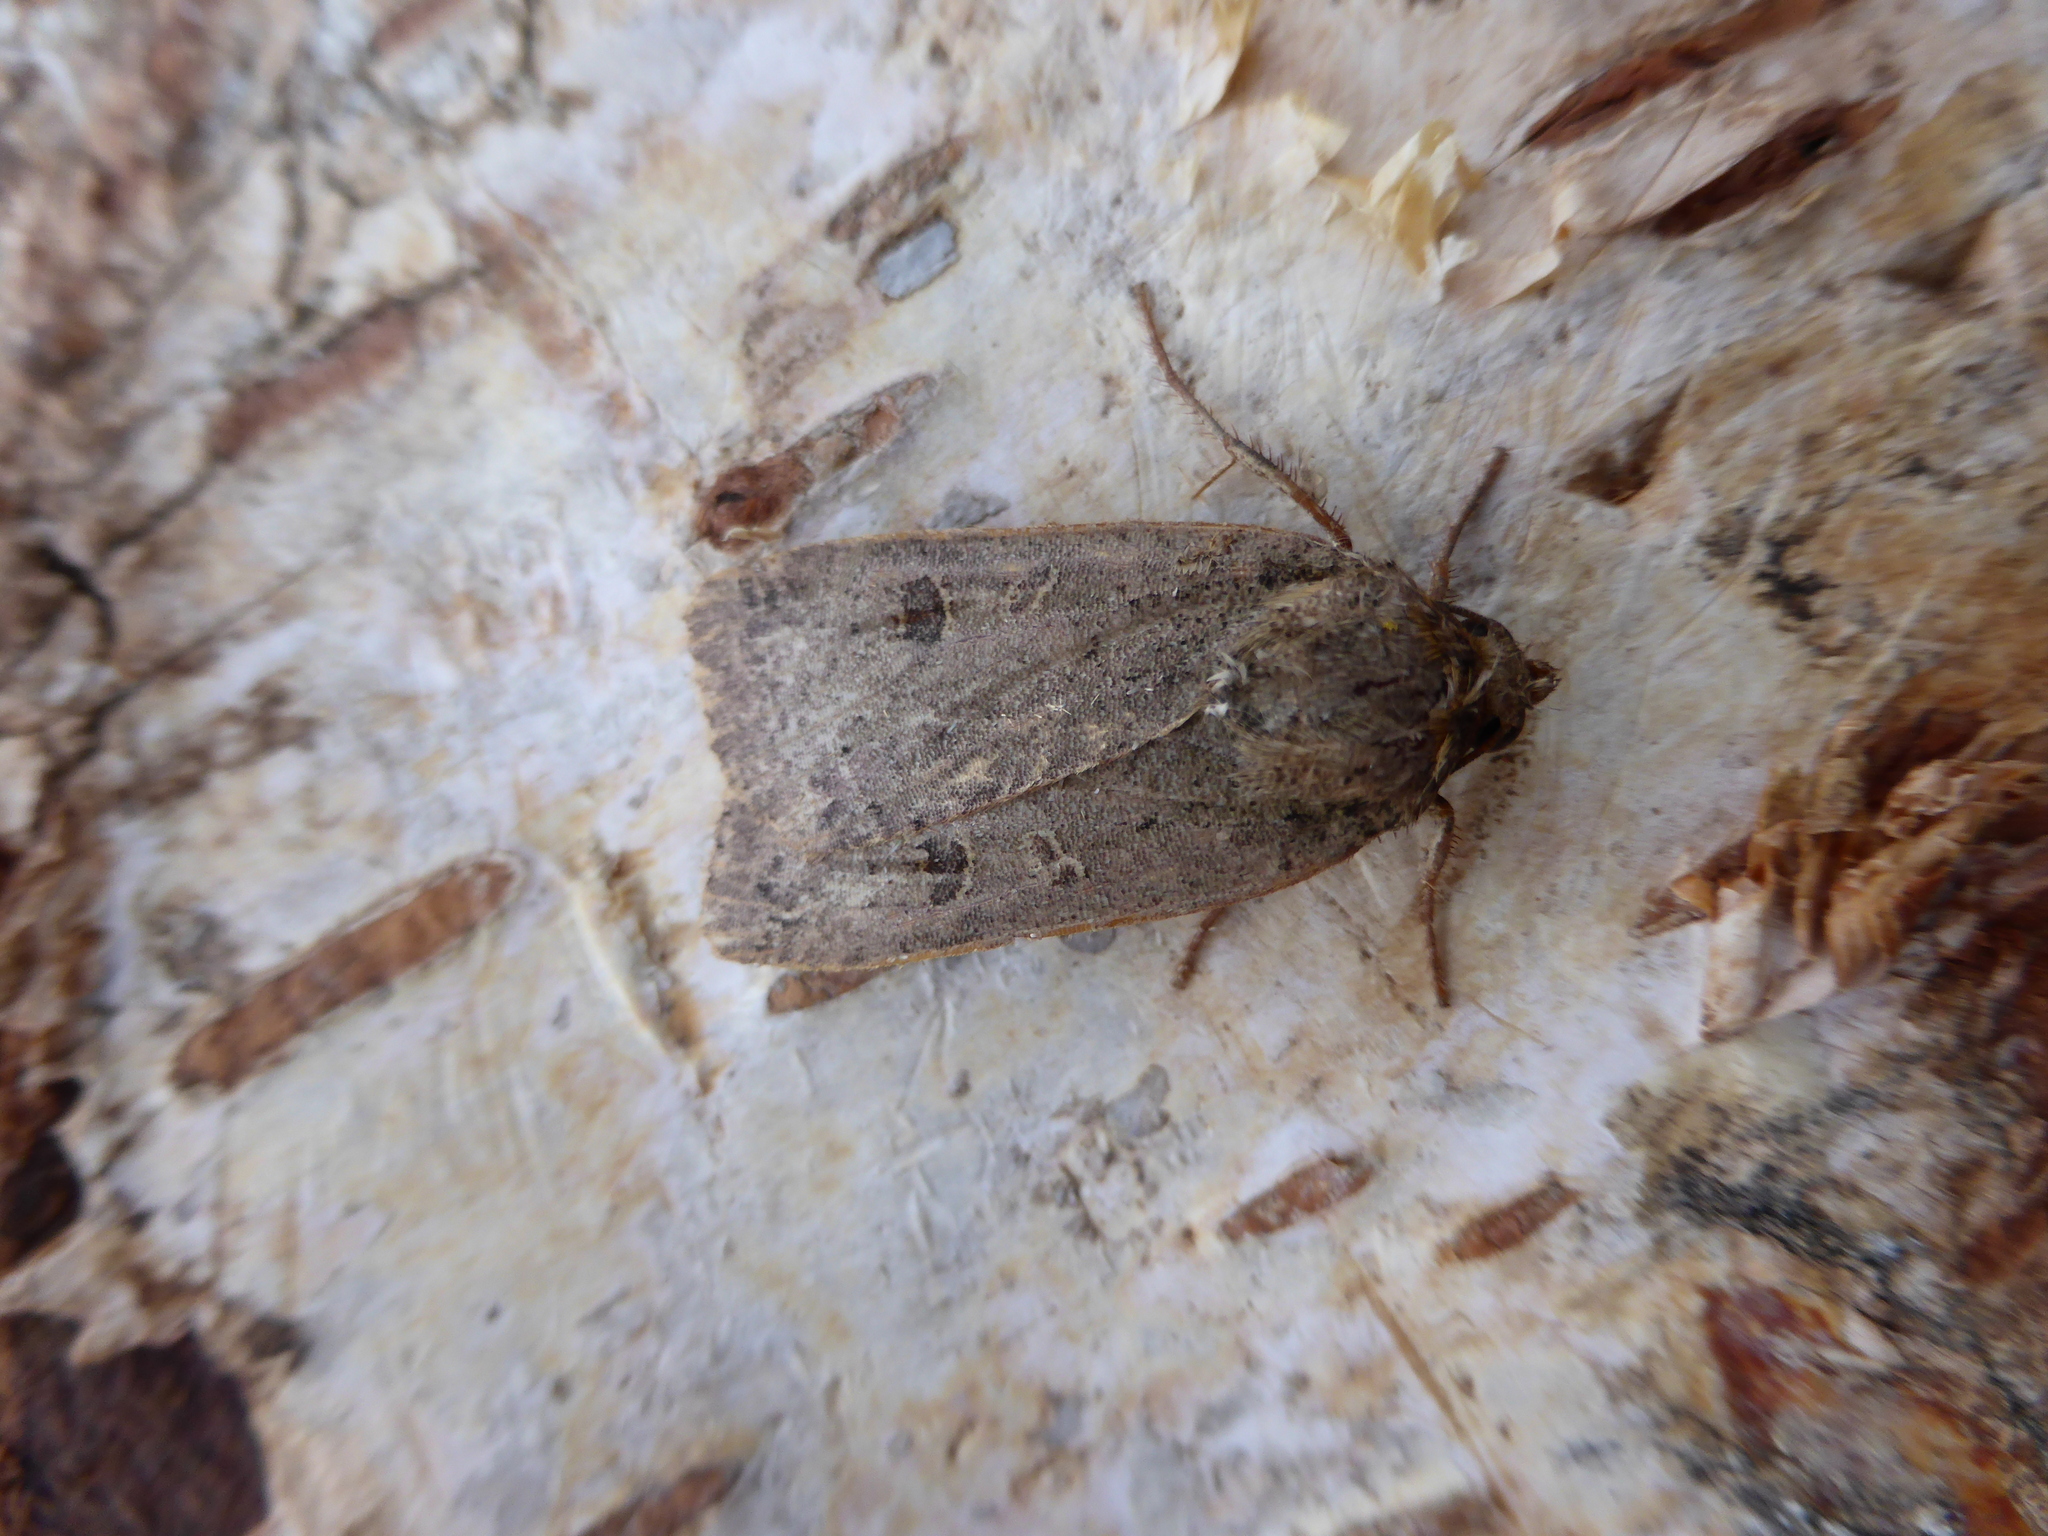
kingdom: Animalia
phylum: Arthropoda
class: Insecta
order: Lepidoptera
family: Noctuidae
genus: Noctua
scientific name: Noctua comes
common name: Lesser yellow underwing
